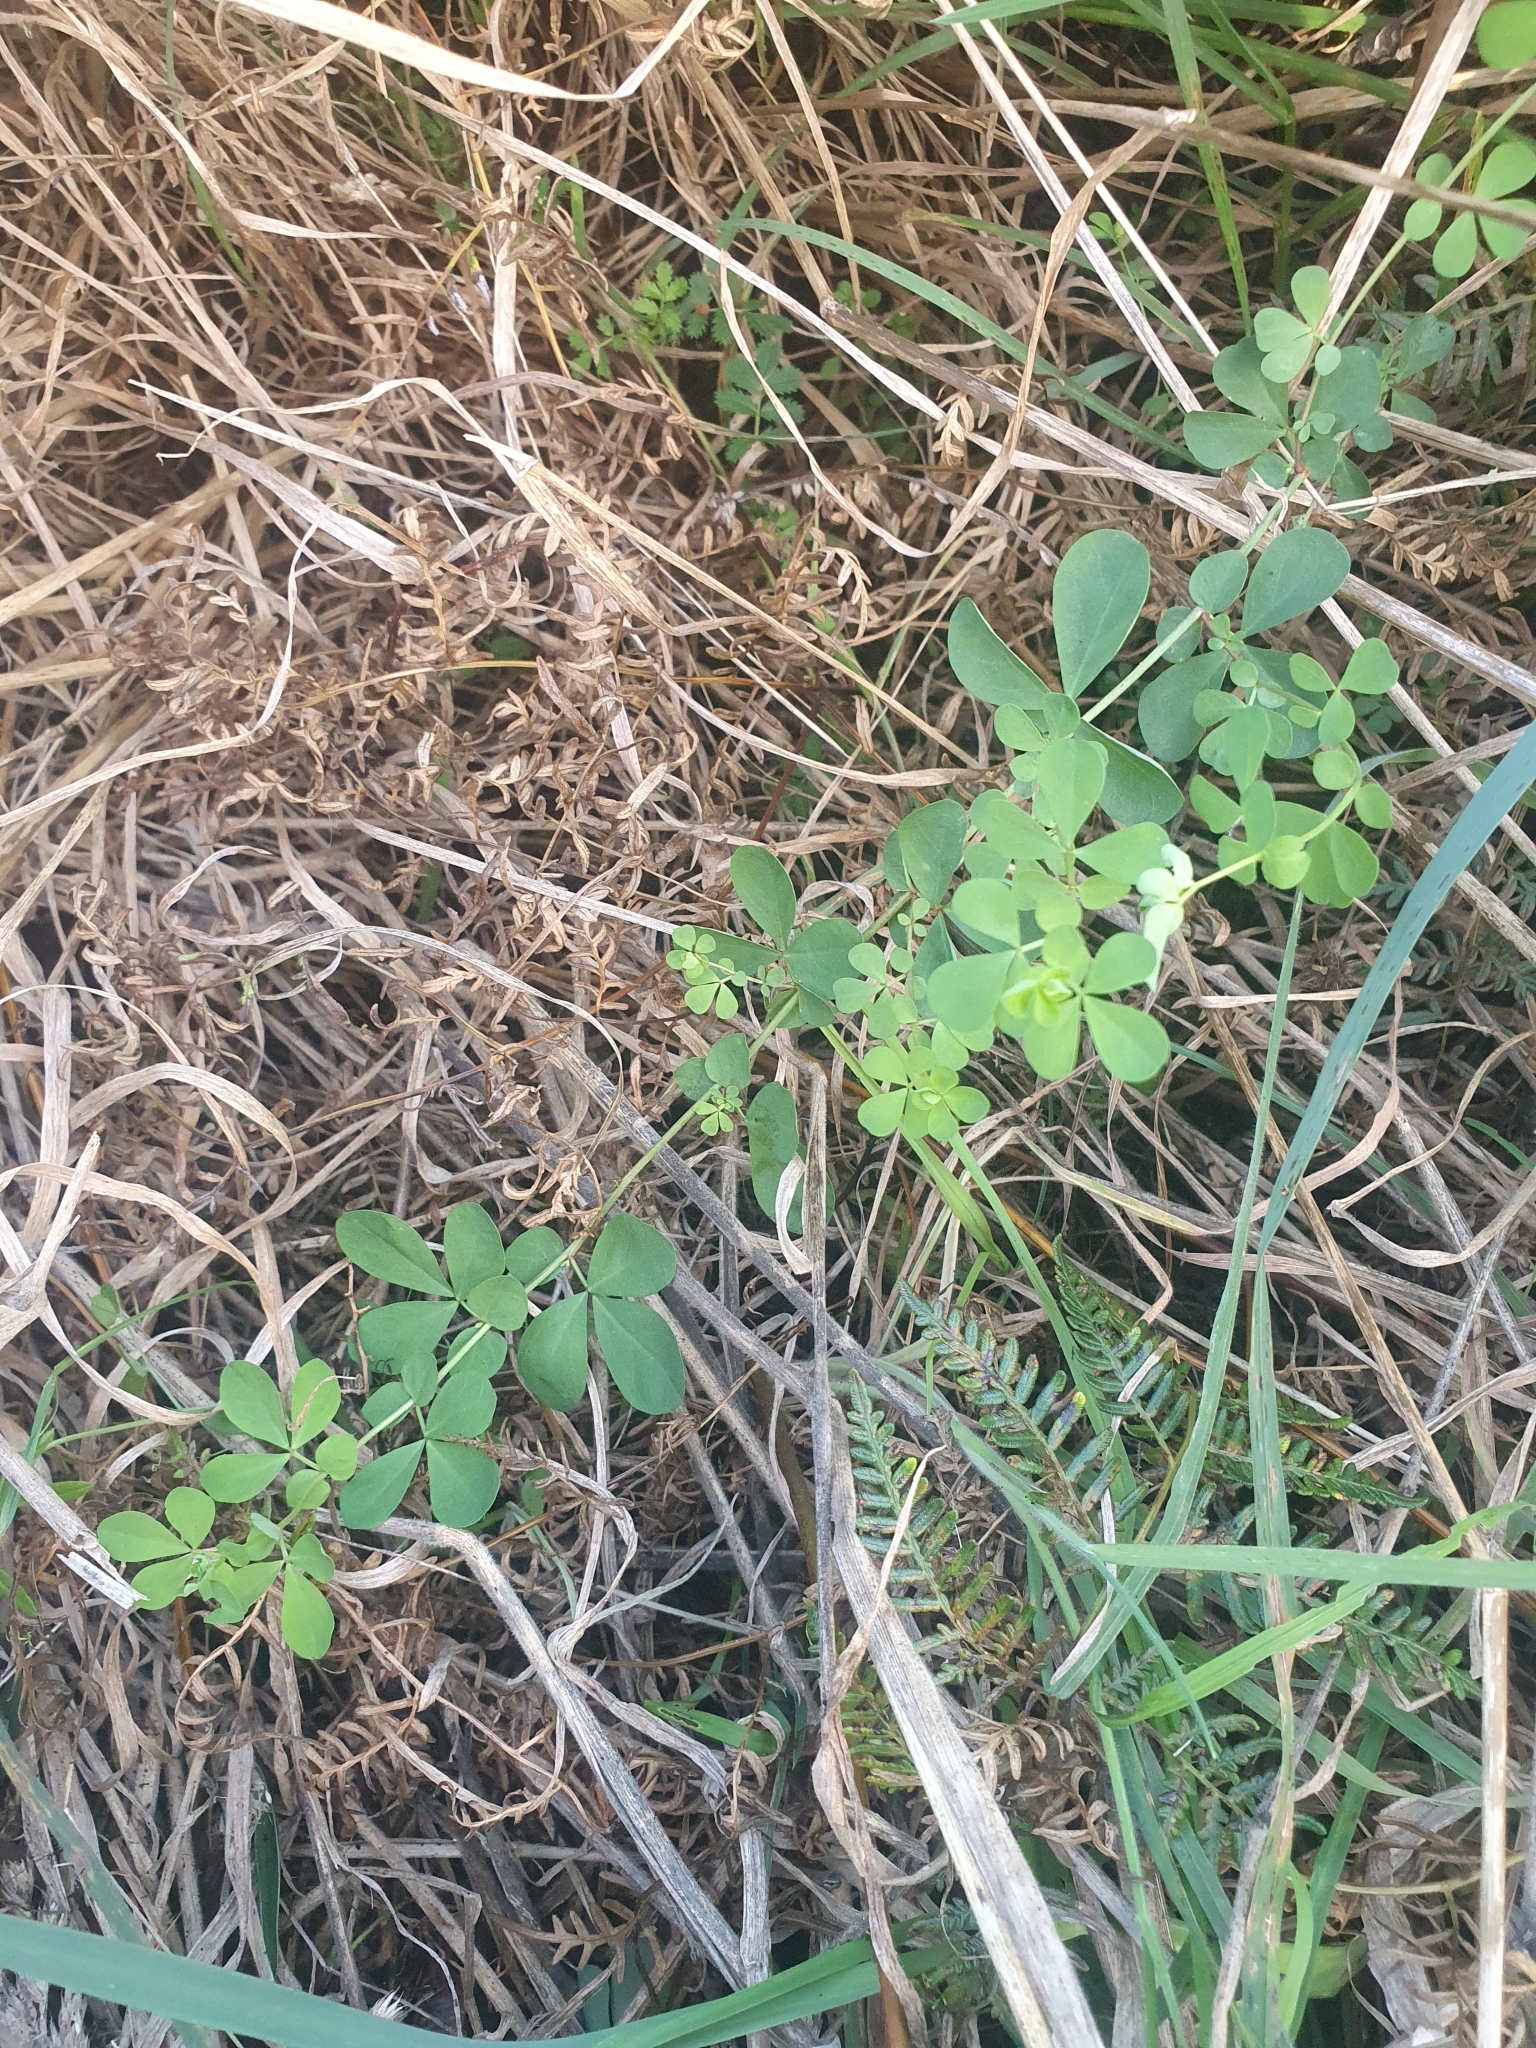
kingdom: Plantae
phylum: Tracheophyta
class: Magnoliopsida
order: Fabales
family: Fabaceae
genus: Lotus
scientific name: Lotus pedunculatus
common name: Greater birdsfoot-trefoil
